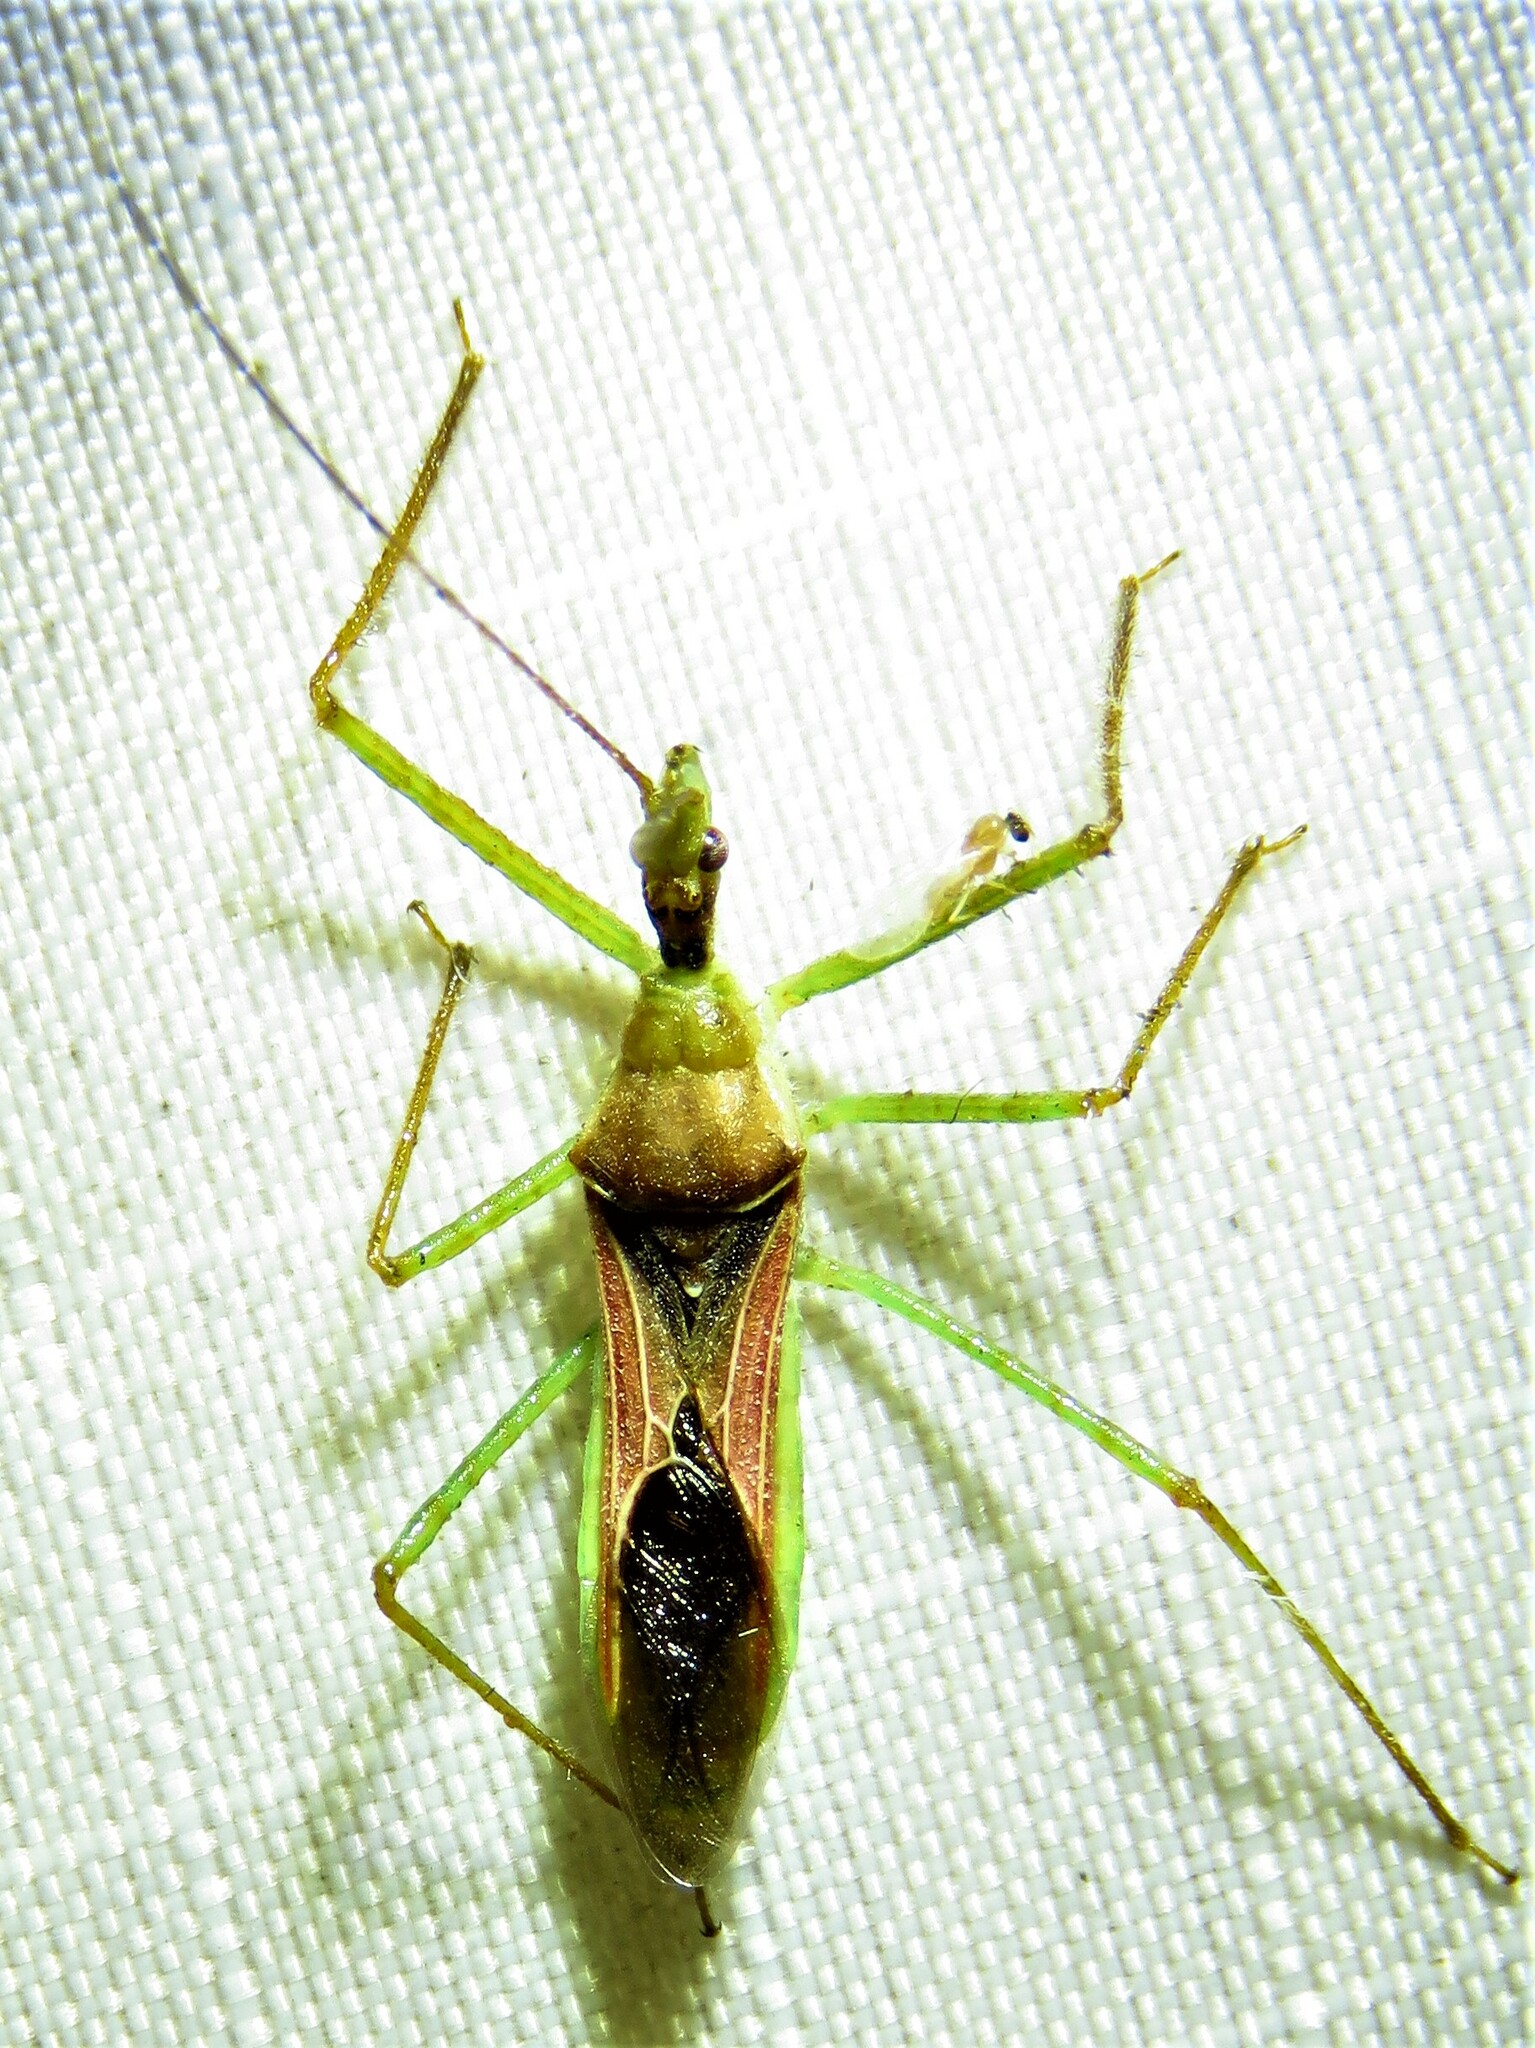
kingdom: Animalia
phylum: Arthropoda
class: Insecta
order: Hemiptera
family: Reduviidae
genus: Zelus
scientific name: Zelus luridus
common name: Pale green assassin bug
